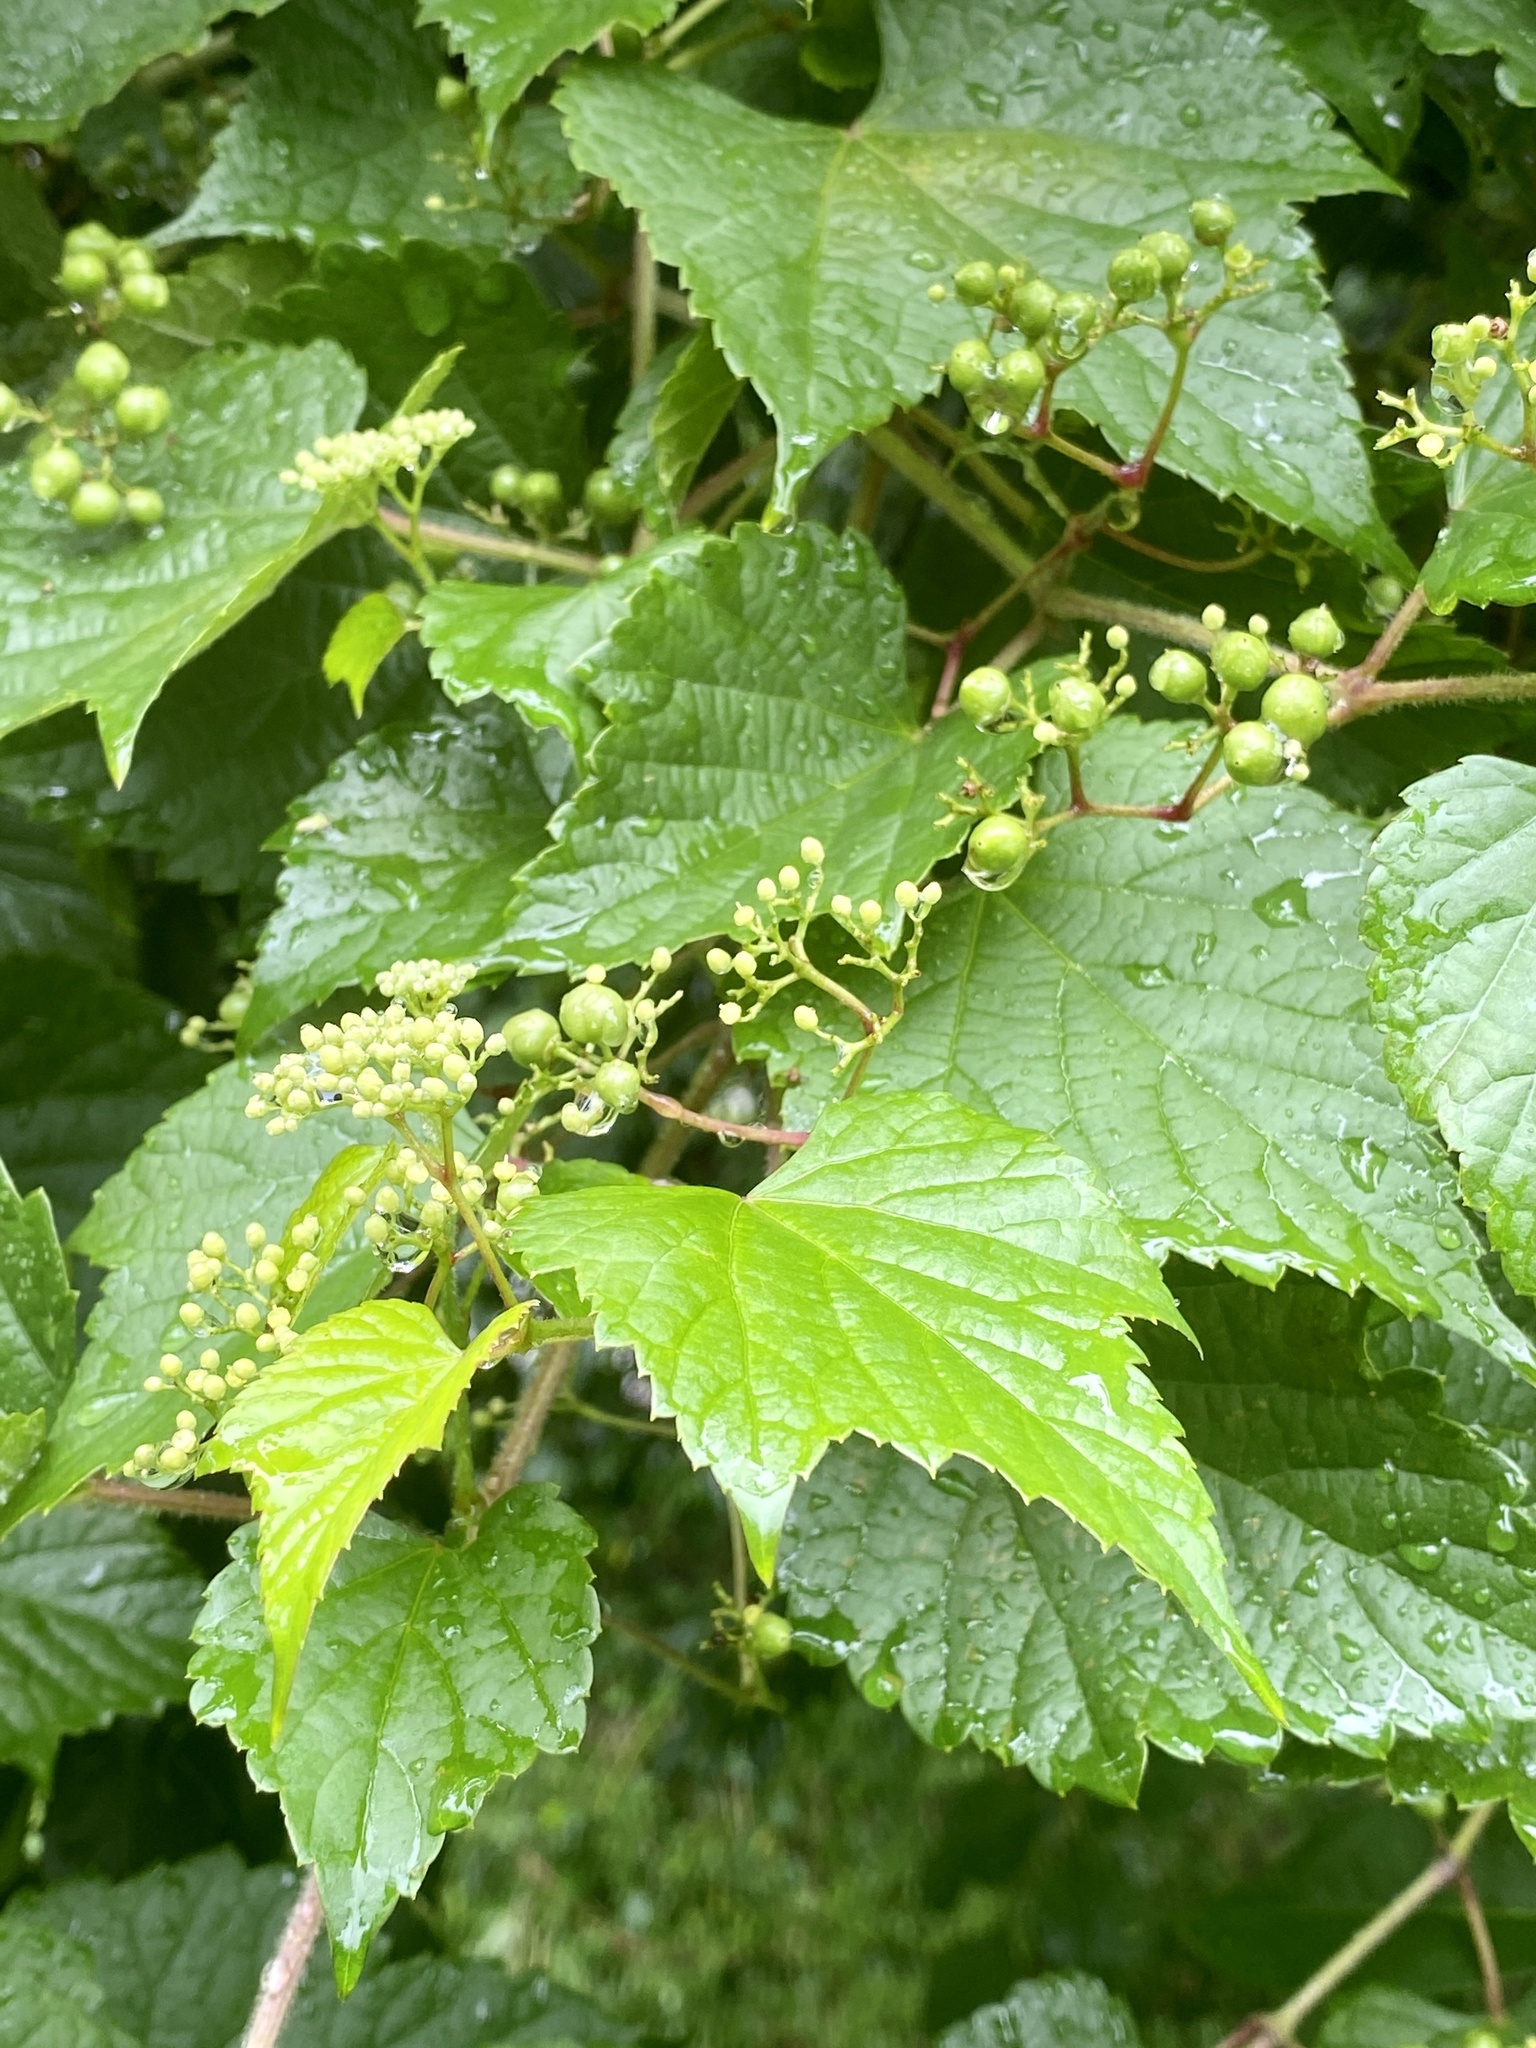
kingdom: Plantae
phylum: Tracheophyta
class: Magnoliopsida
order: Vitales
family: Vitaceae
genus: Ampelopsis
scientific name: Ampelopsis glandulosa
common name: Amur peppervine
